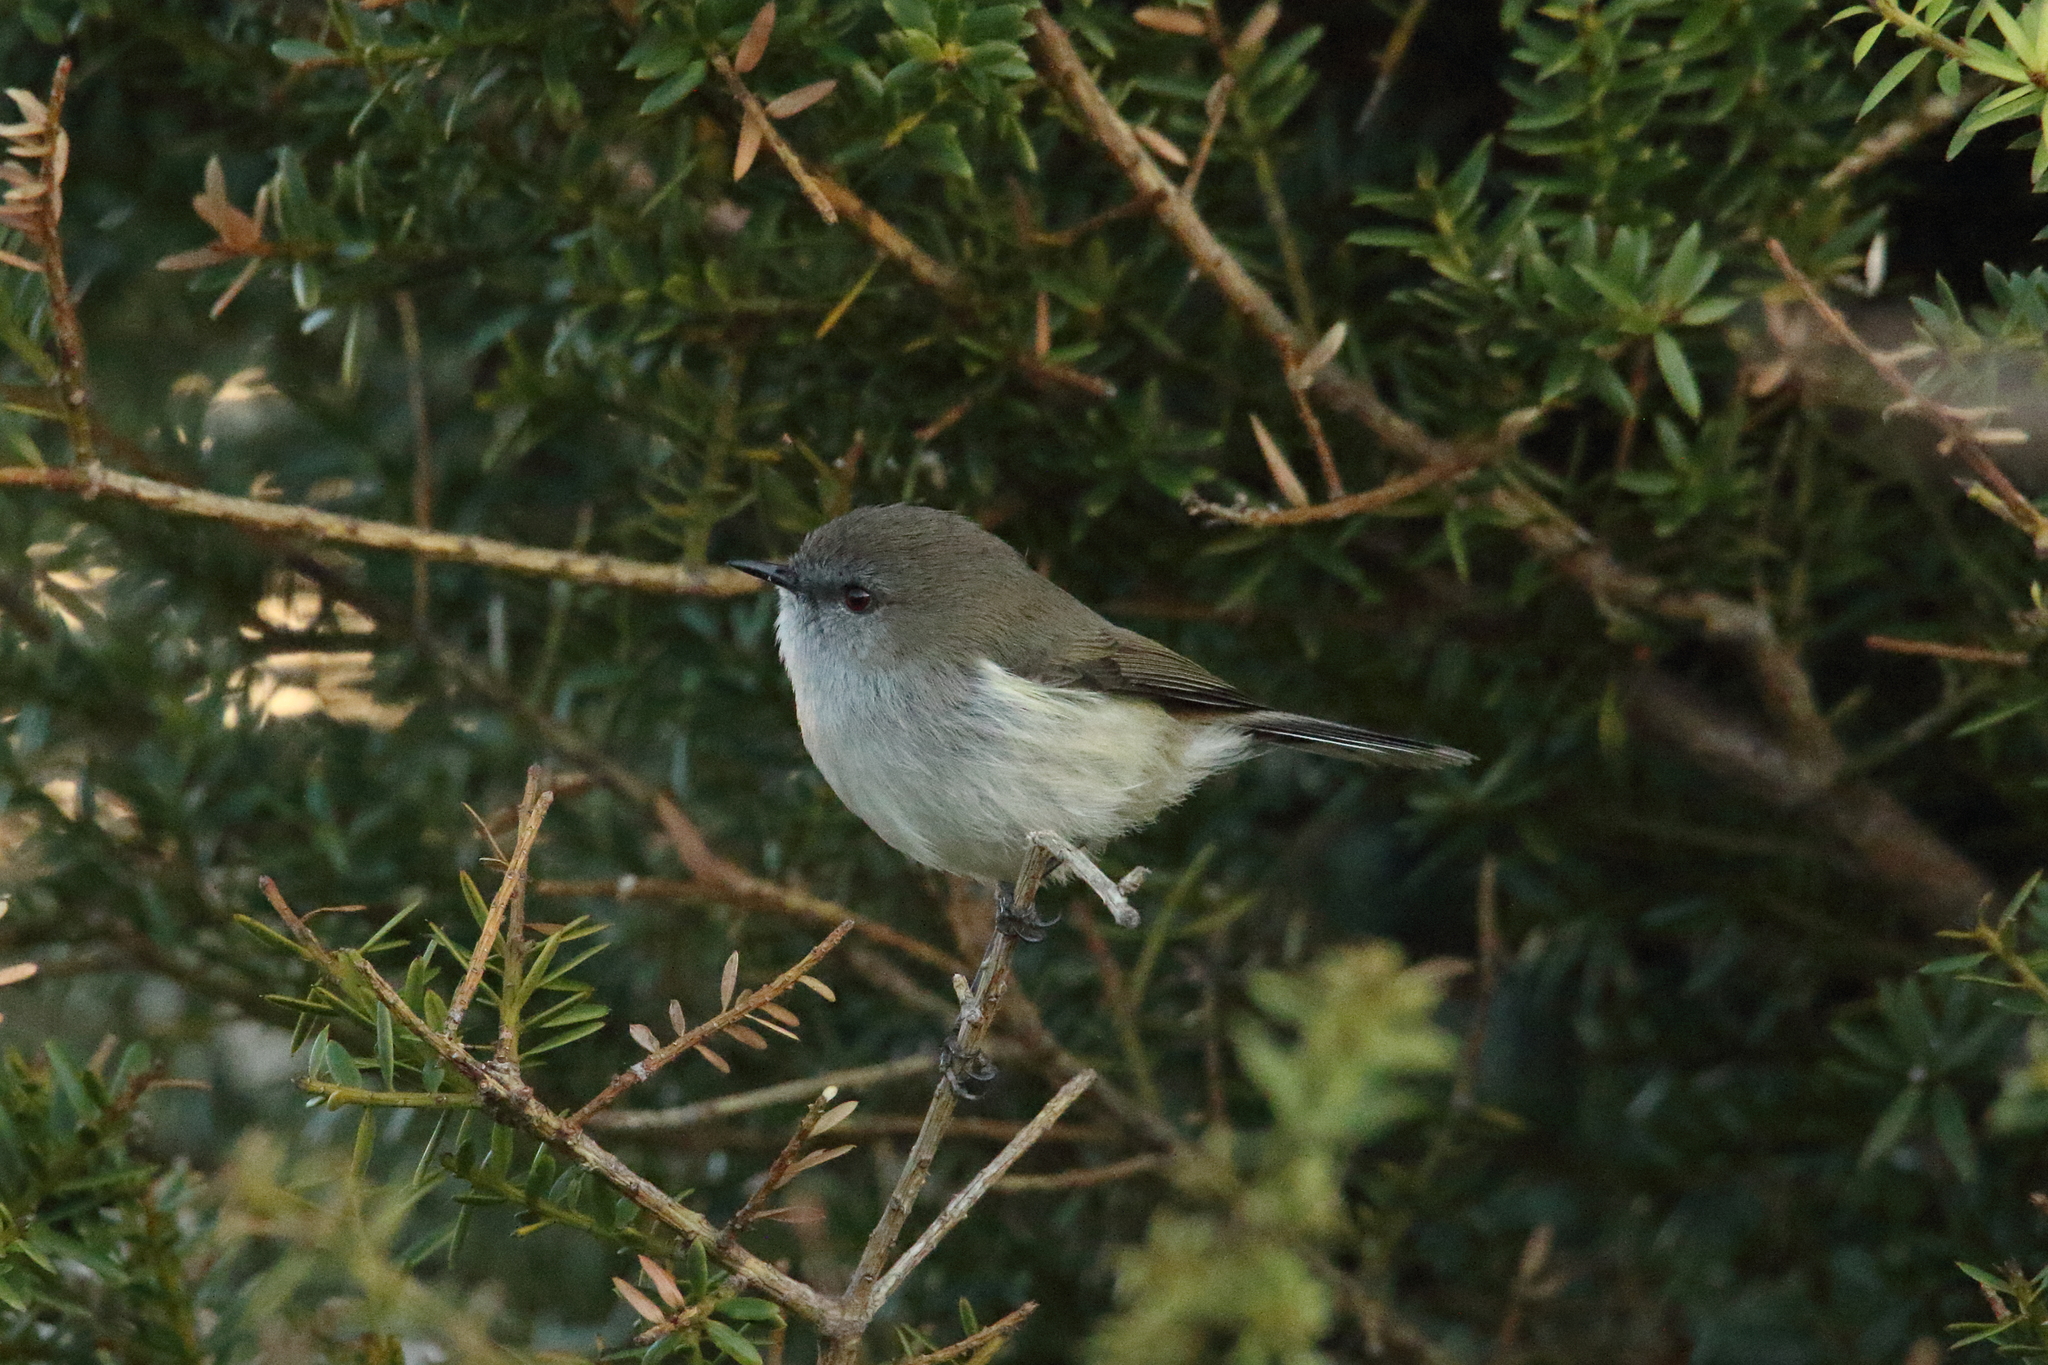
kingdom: Animalia
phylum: Chordata
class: Aves
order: Passeriformes
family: Acanthizidae
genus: Gerygone
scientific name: Gerygone igata
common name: Grey gerygone
